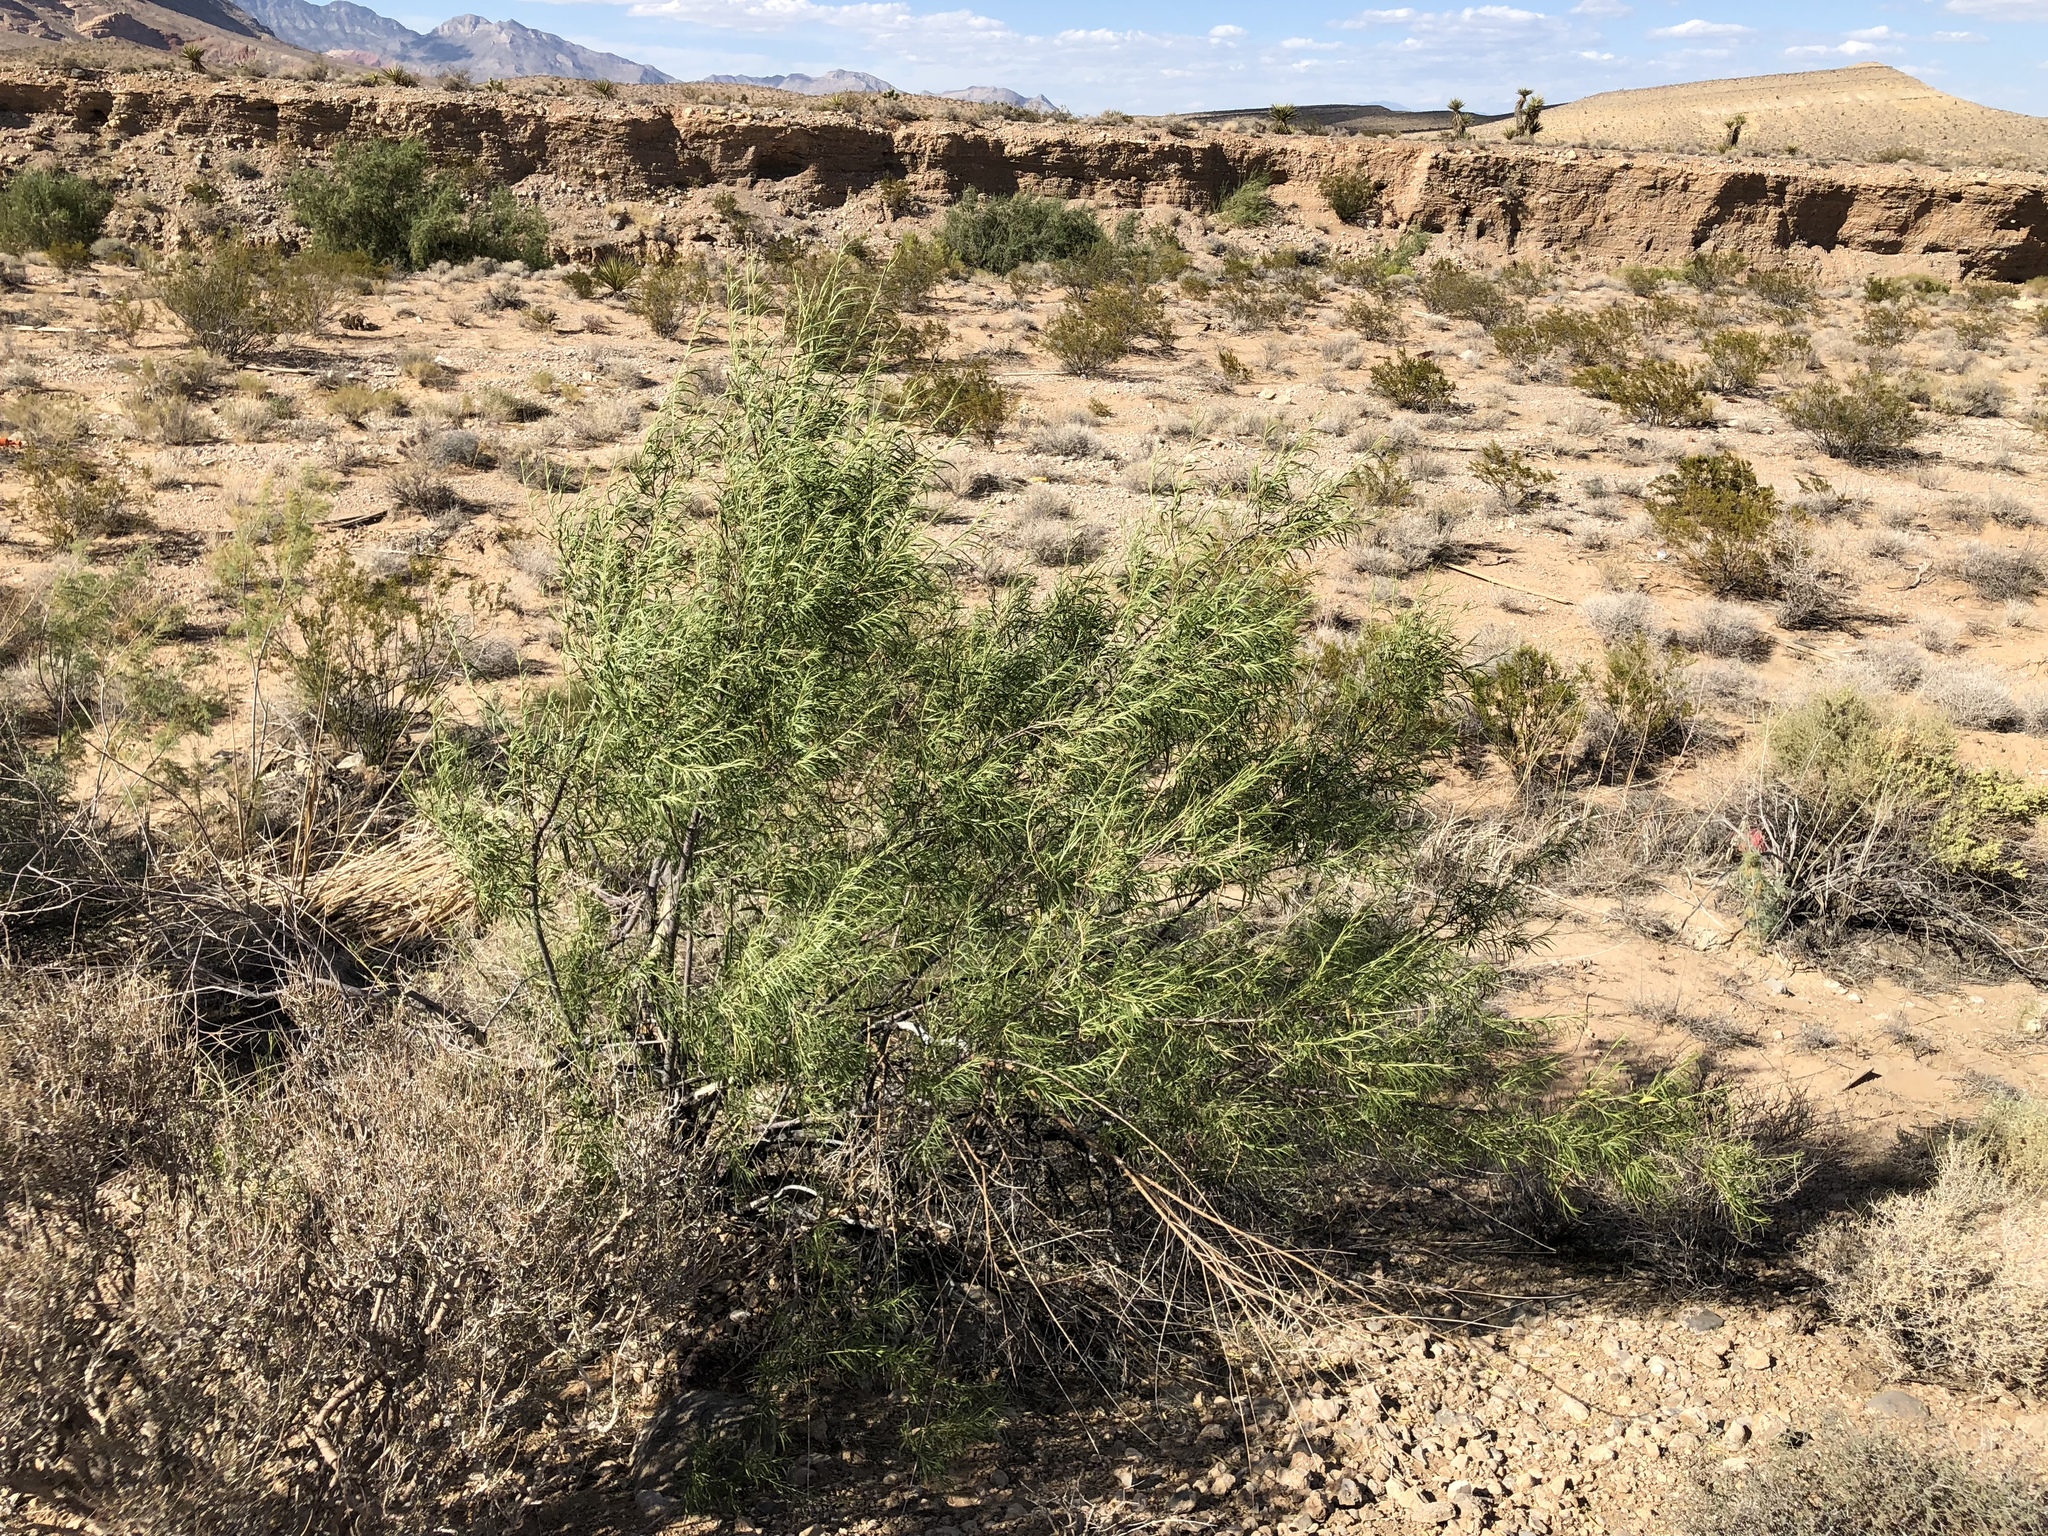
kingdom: Plantae
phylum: Tracheophyta
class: Magnoliopsida
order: Lamiales
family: Bignoniaceae
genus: Chilopsis
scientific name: Chilopsis linearis
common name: Desert-willow
